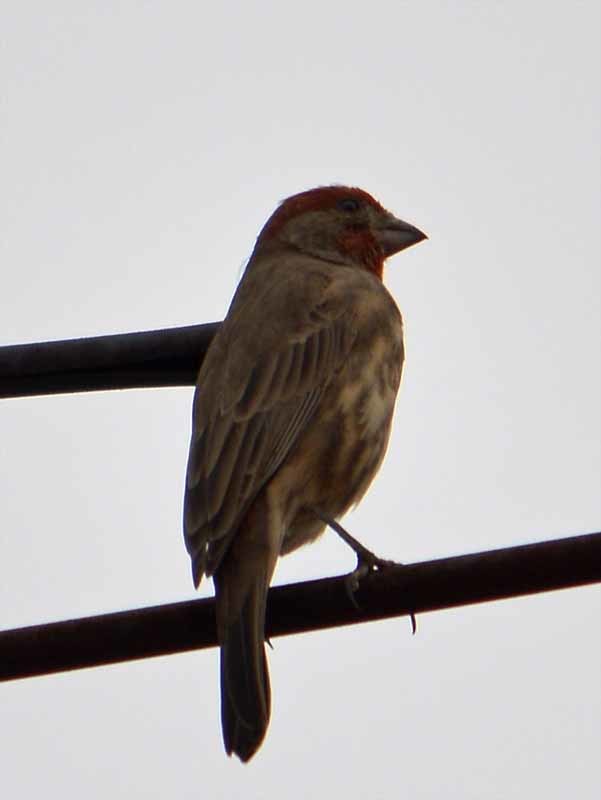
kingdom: Animalia
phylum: Chordata
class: Aves
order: Passeriformes
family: Fringillidae
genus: Haemorhous
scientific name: Haemorhous mexicanus
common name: House finch
